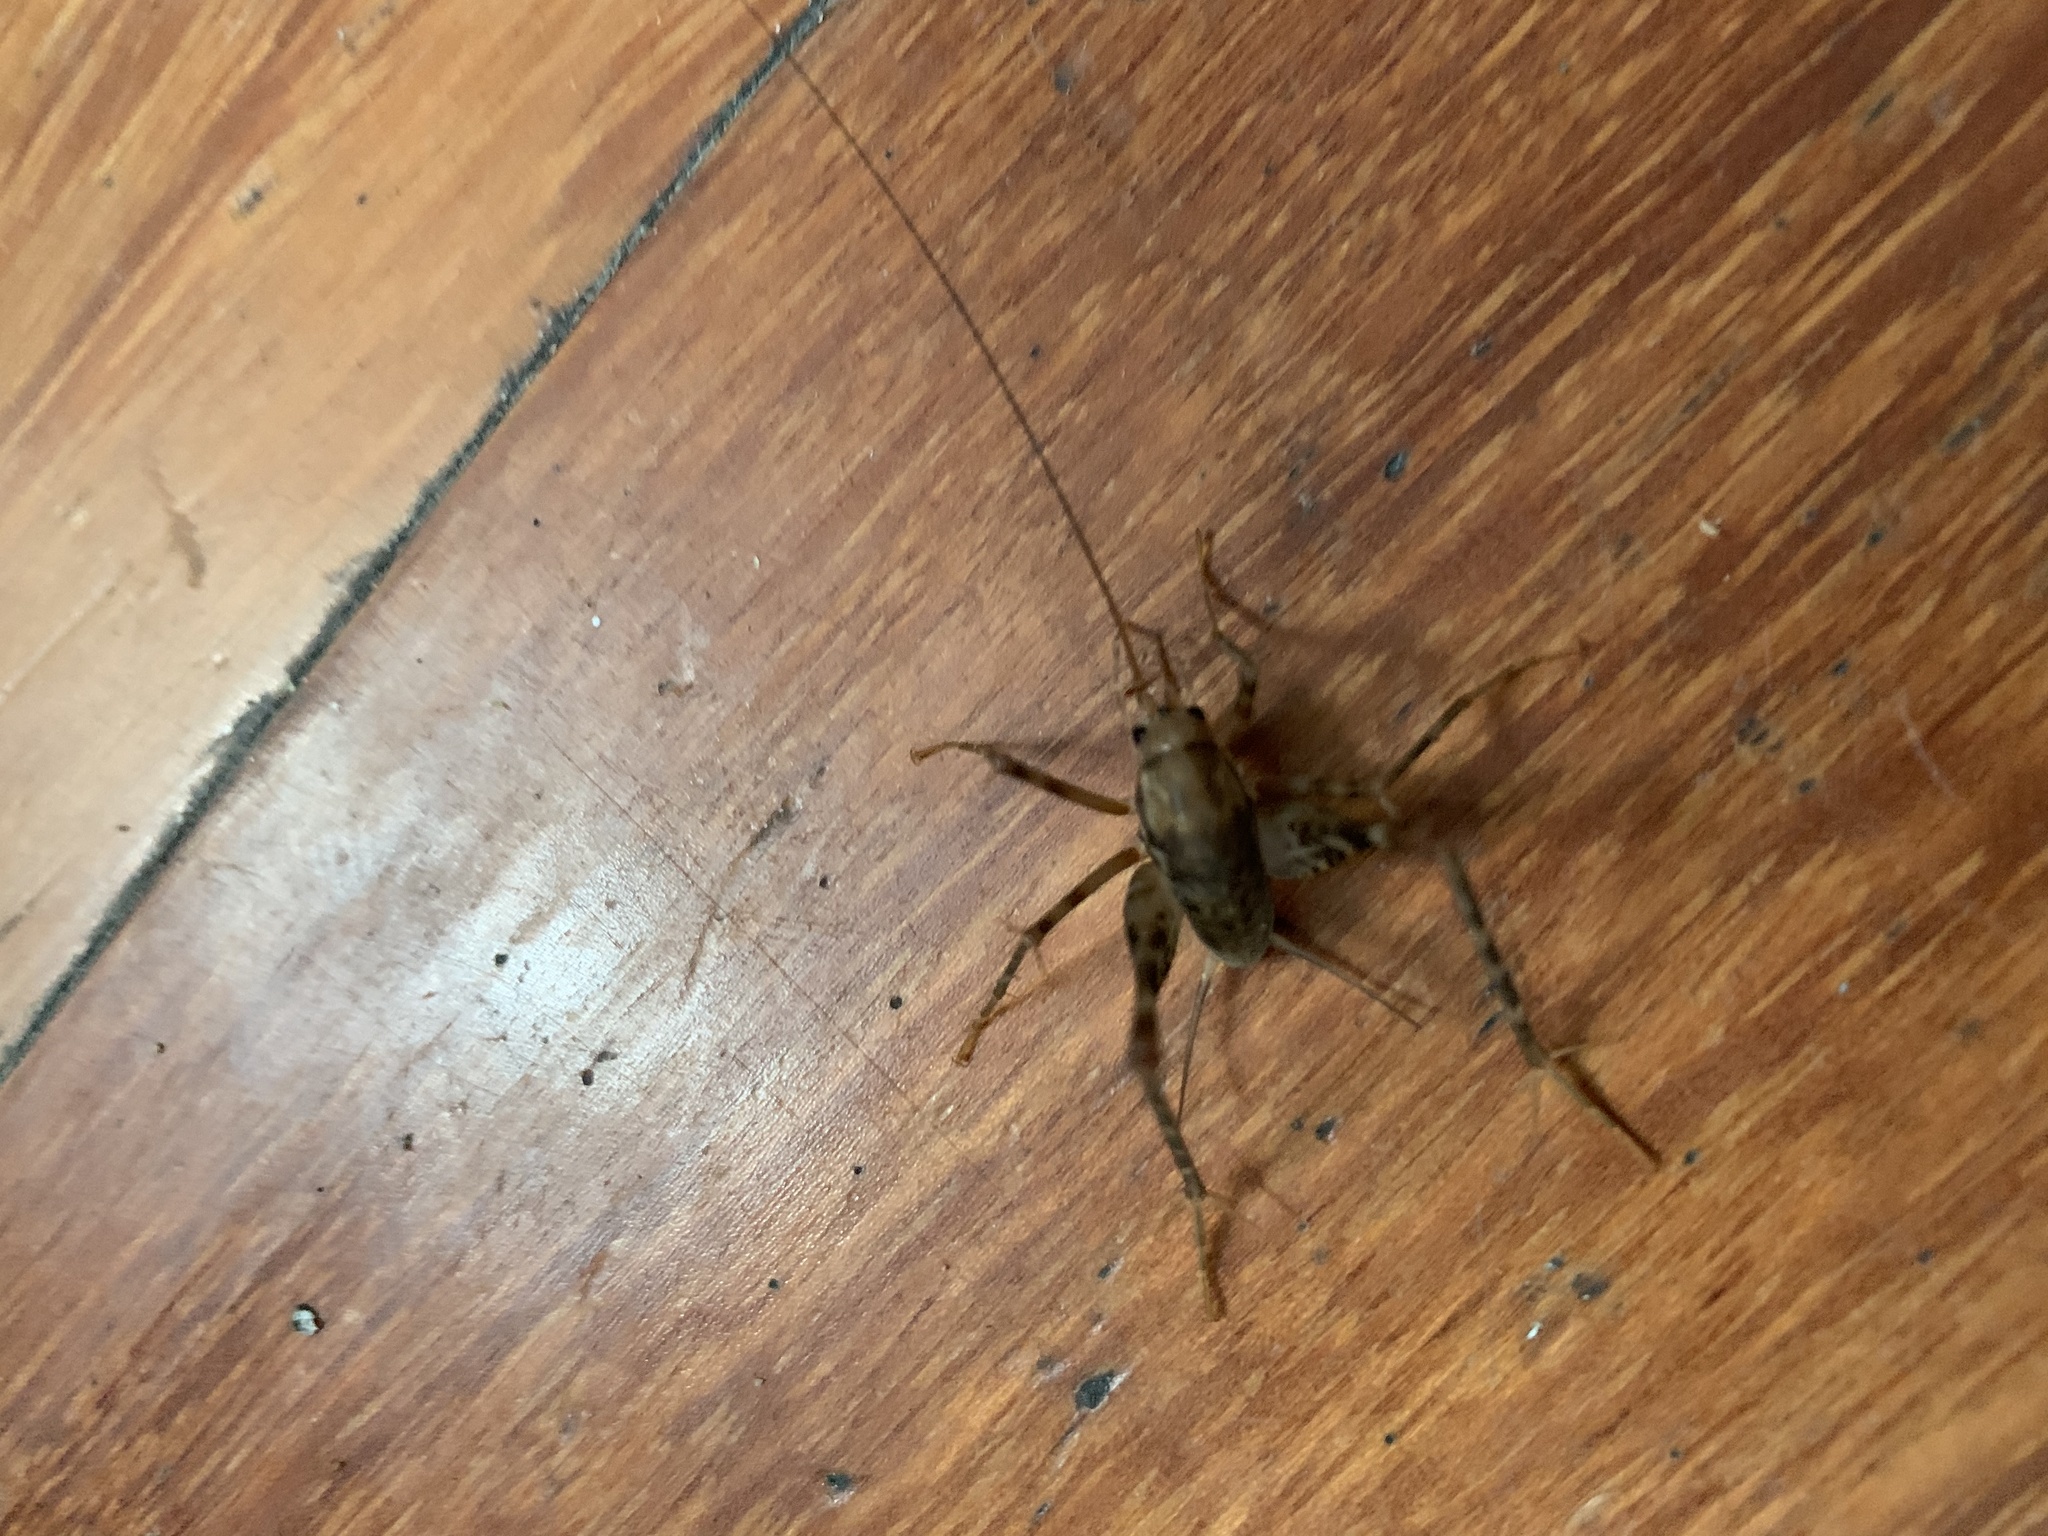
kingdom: Animalia
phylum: Arthropoda
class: Insecta
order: Orthoptera
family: Rhaphidophoridae
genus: Tachycines
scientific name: Tachycines asynamorus
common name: Greenhouse camel cricket
